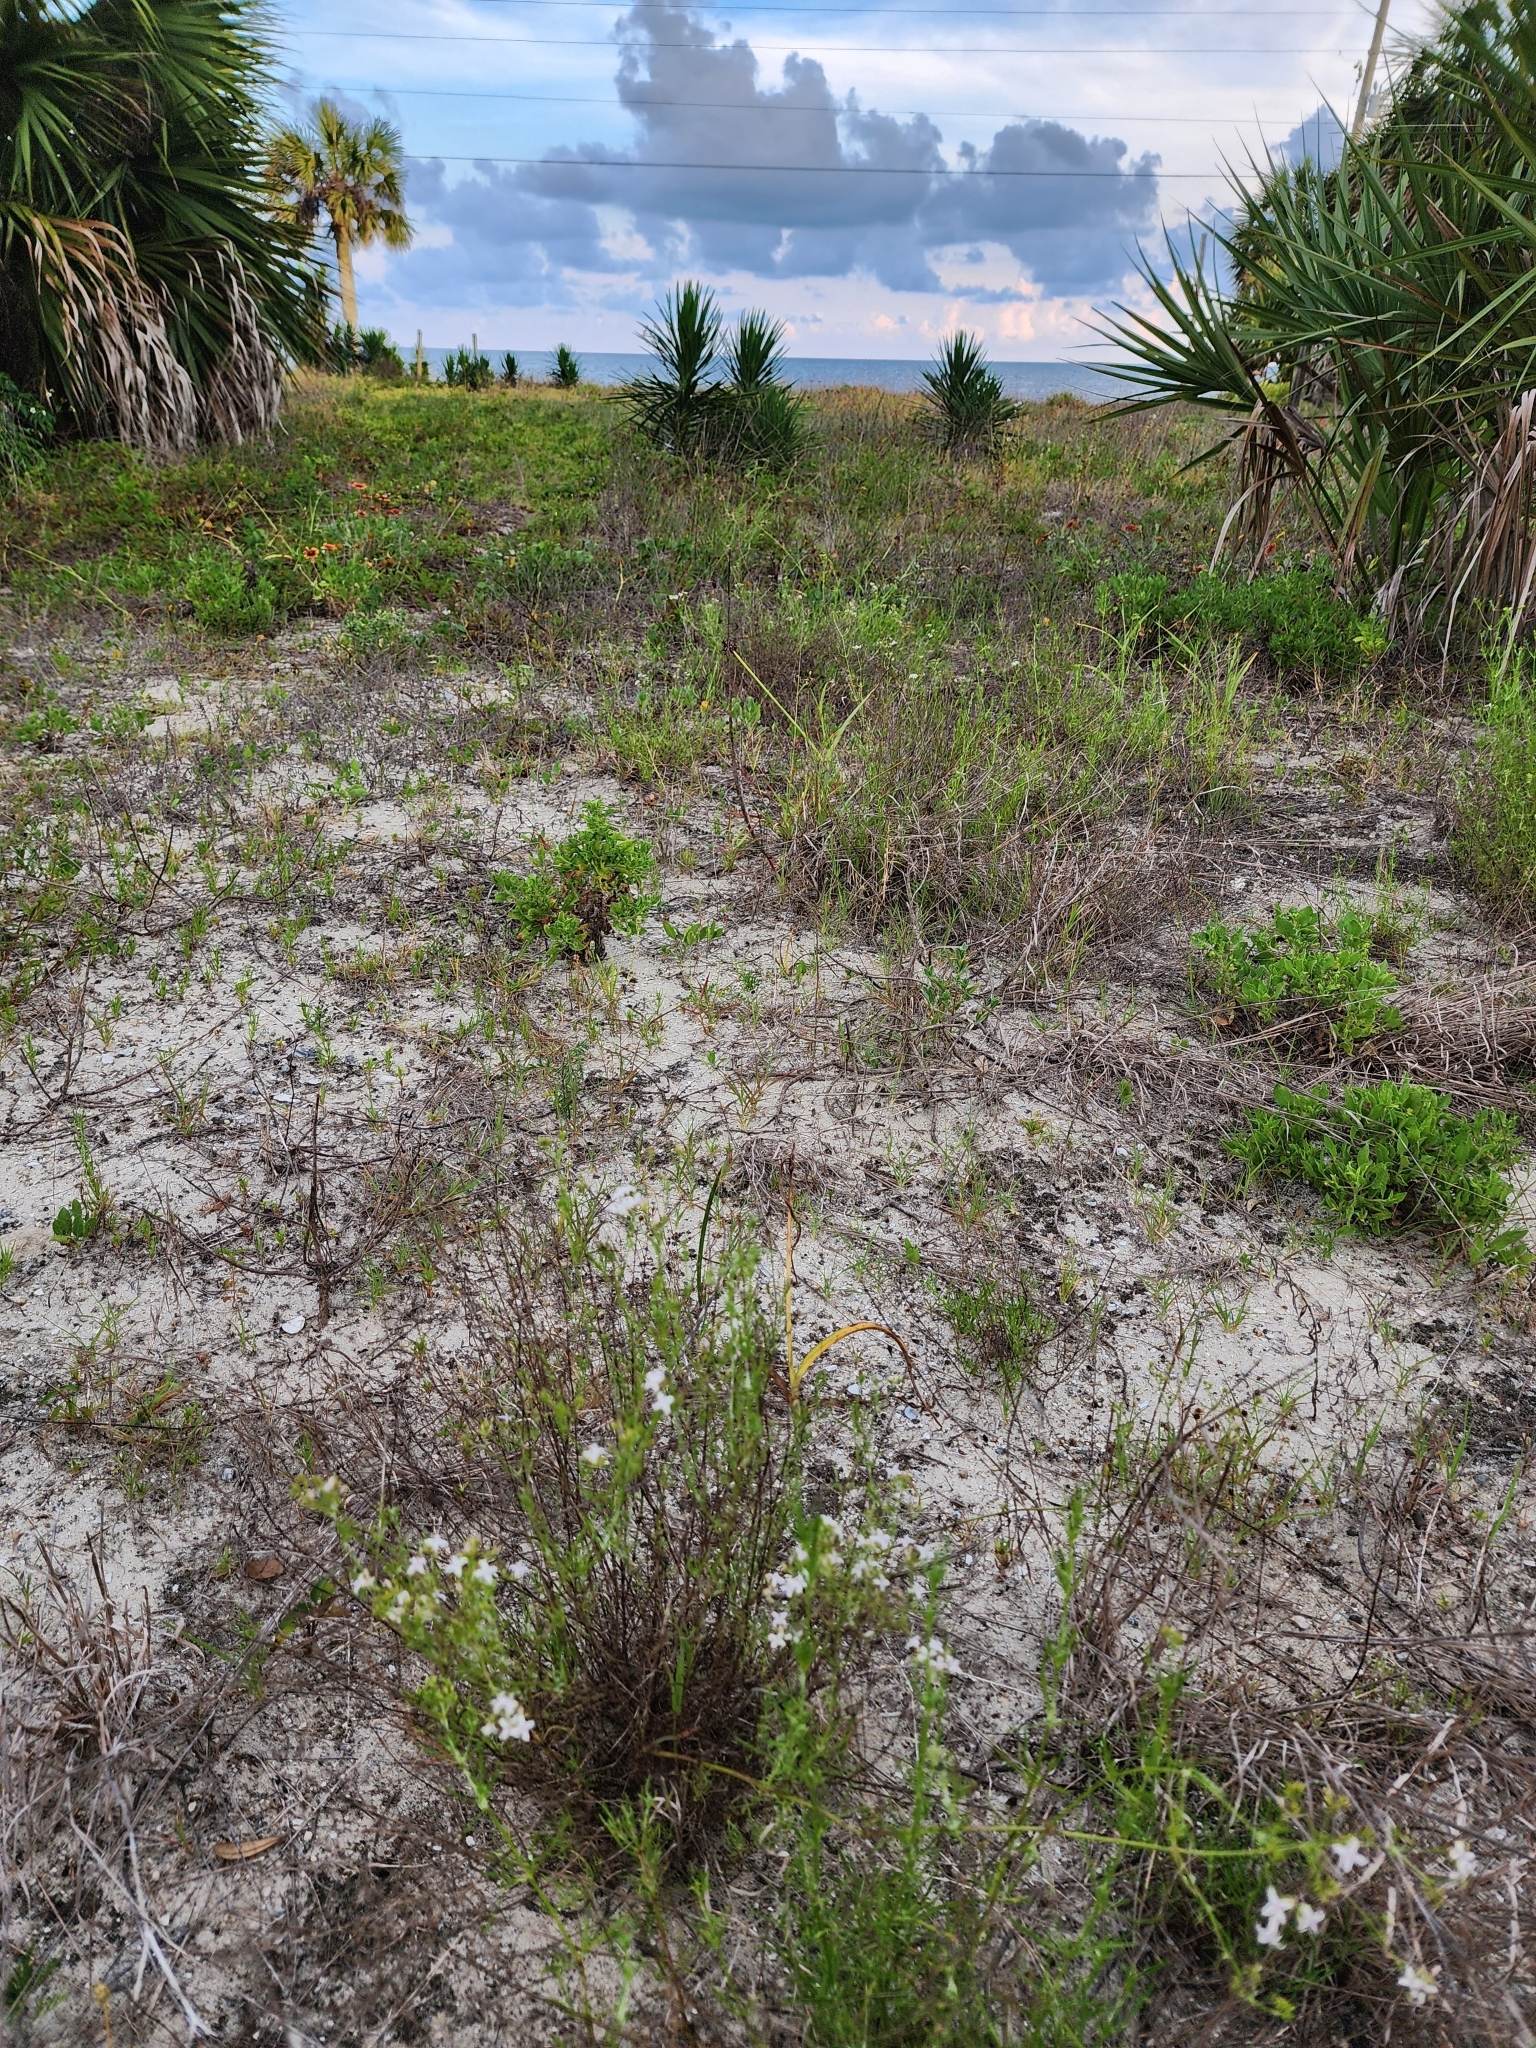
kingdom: Plantae
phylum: Tracheophyta
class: Magnoliopsida
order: Gentianales
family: Rubiaceae
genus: Stenaria
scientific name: Stenaria nigricans
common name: Diamondflowers
